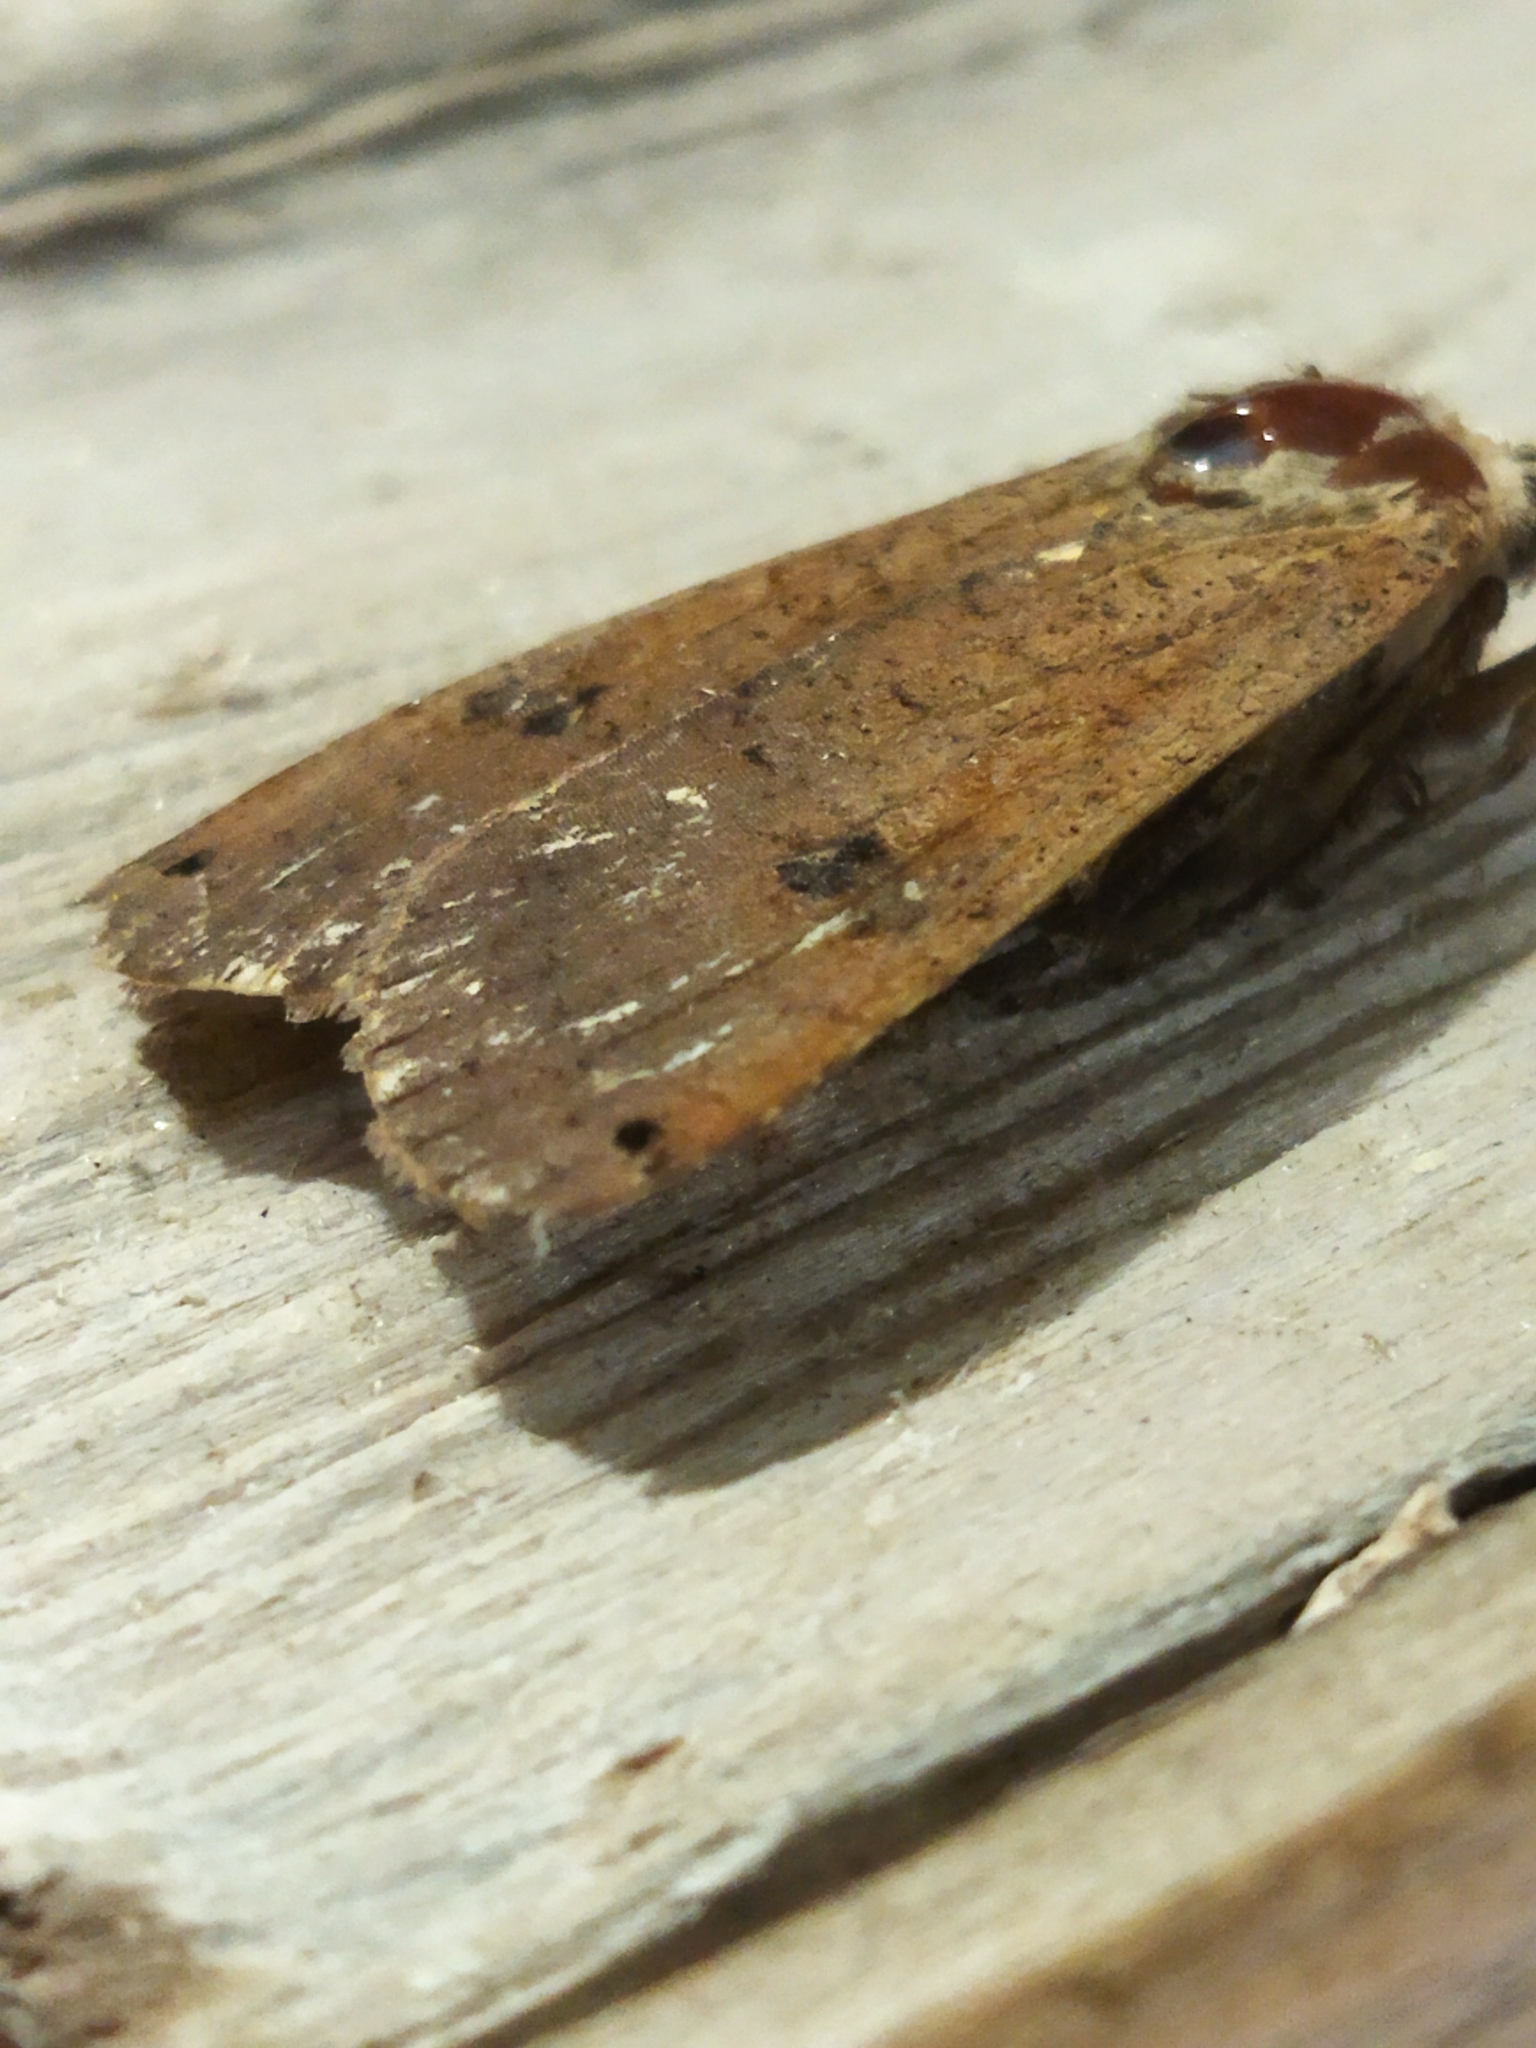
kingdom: Animalia
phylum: Arthropoda
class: Insecta
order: Lepidoptera
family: Noctuidae
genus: Noctua
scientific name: Noctua pronuba
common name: Large yellow underwing
